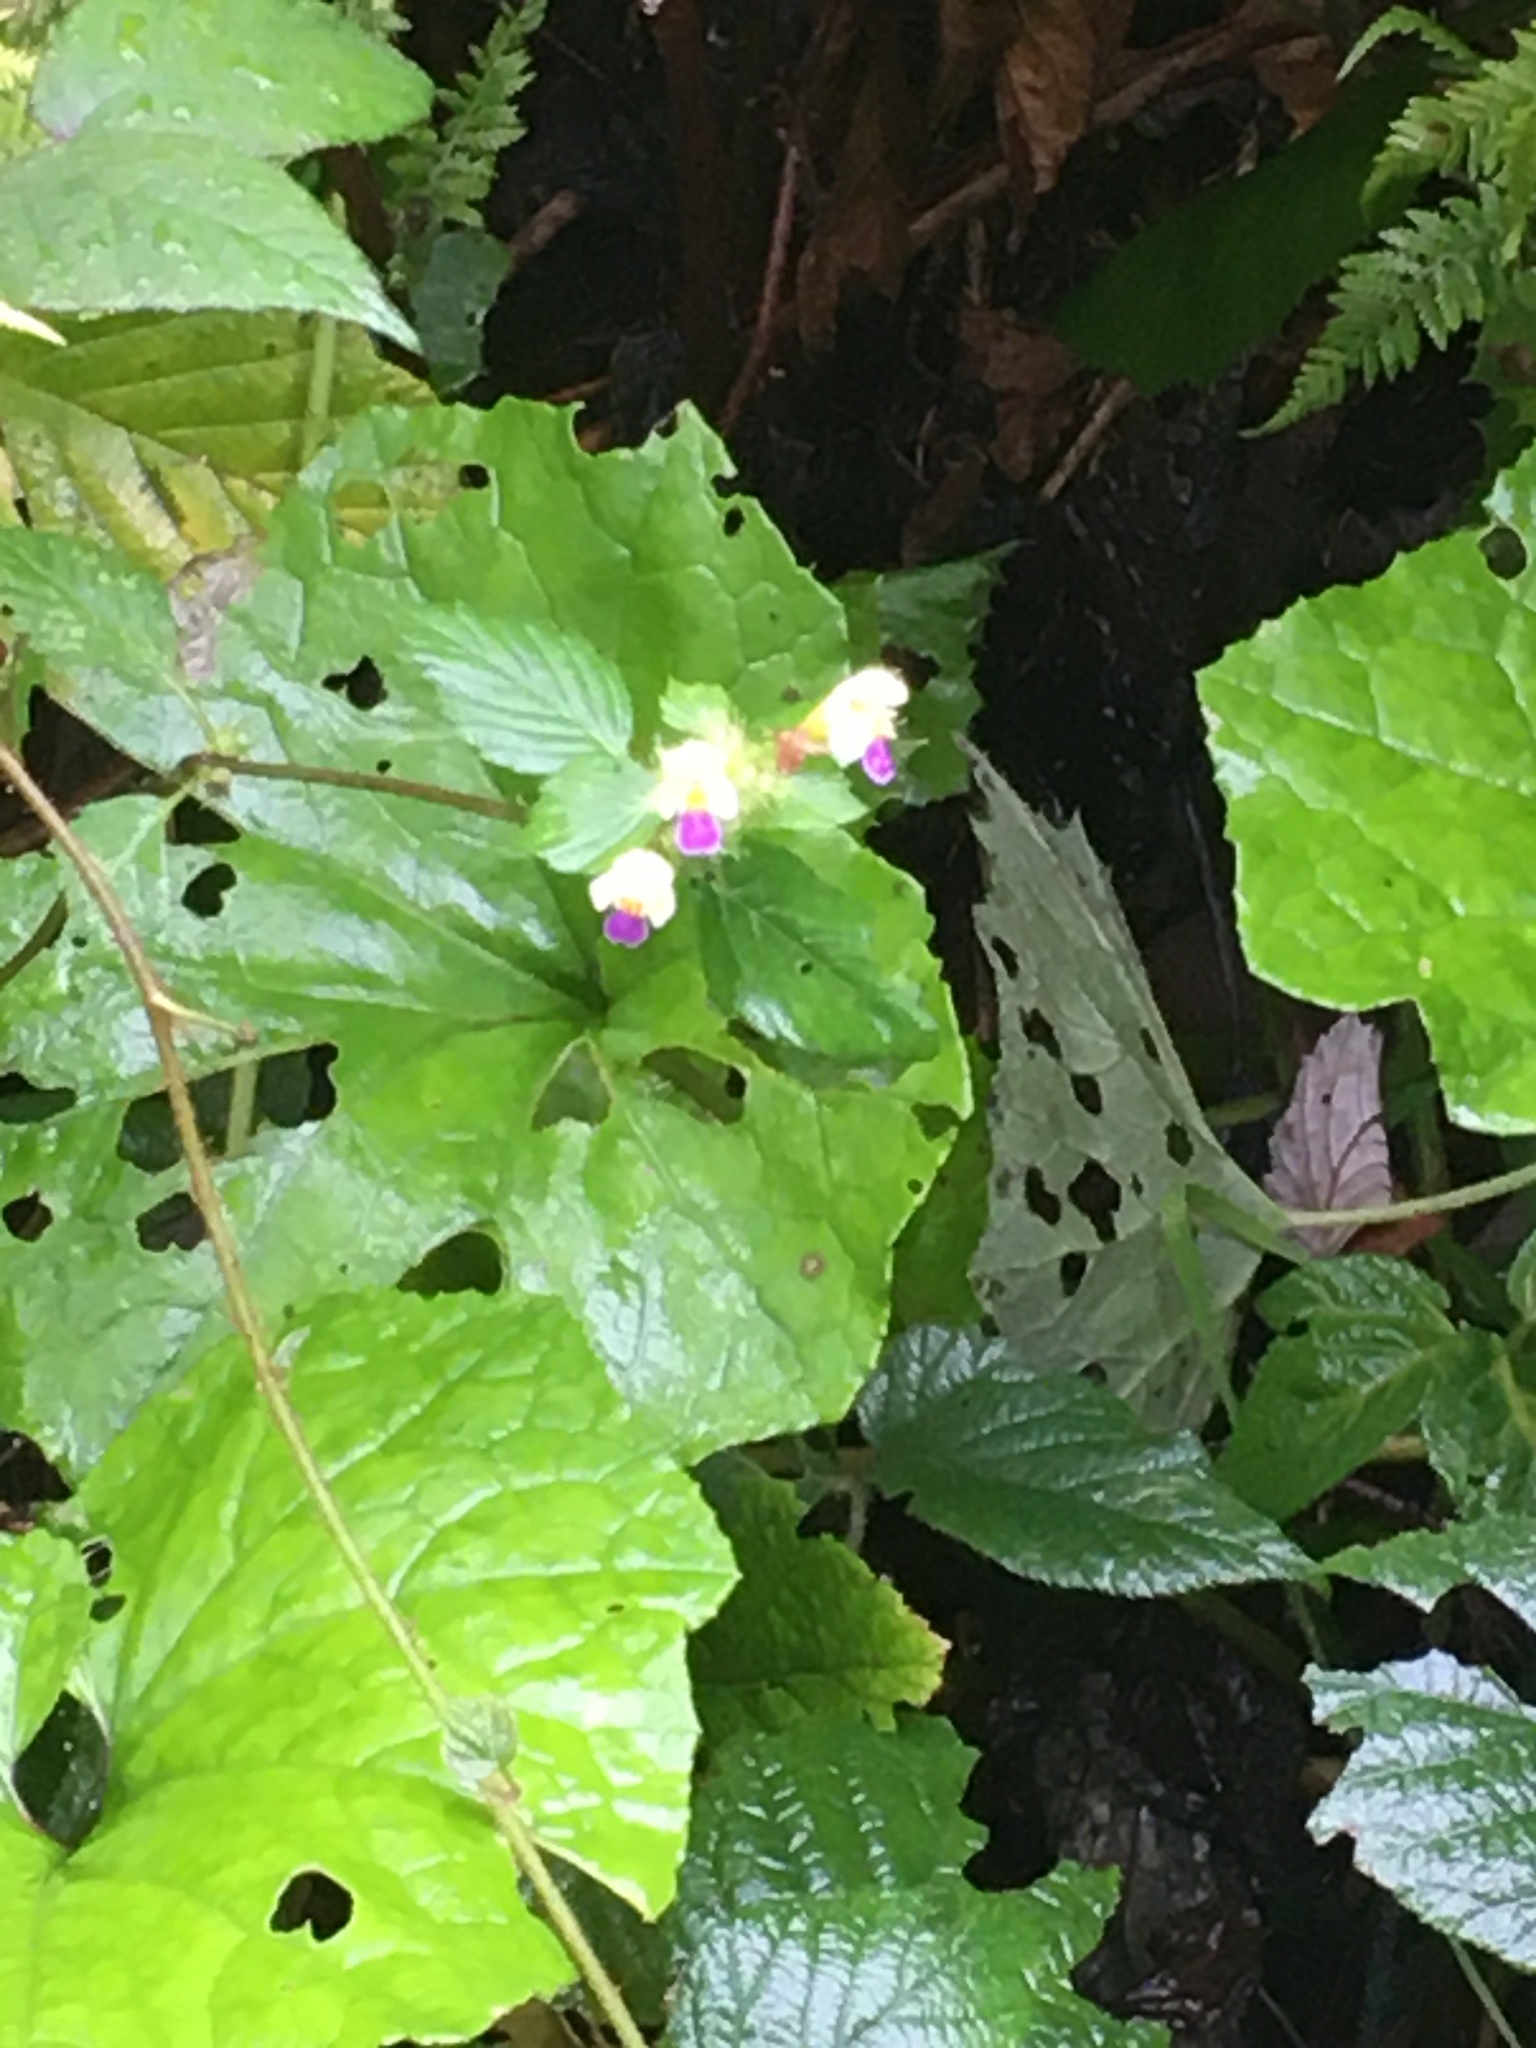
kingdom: Plantae
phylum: Tracheophyta
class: Magnoliopsida
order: Lamiales
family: Lamiaceae
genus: Galeopsis
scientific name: Galeopsis speciosa
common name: Large-flowered hemp-nettle
